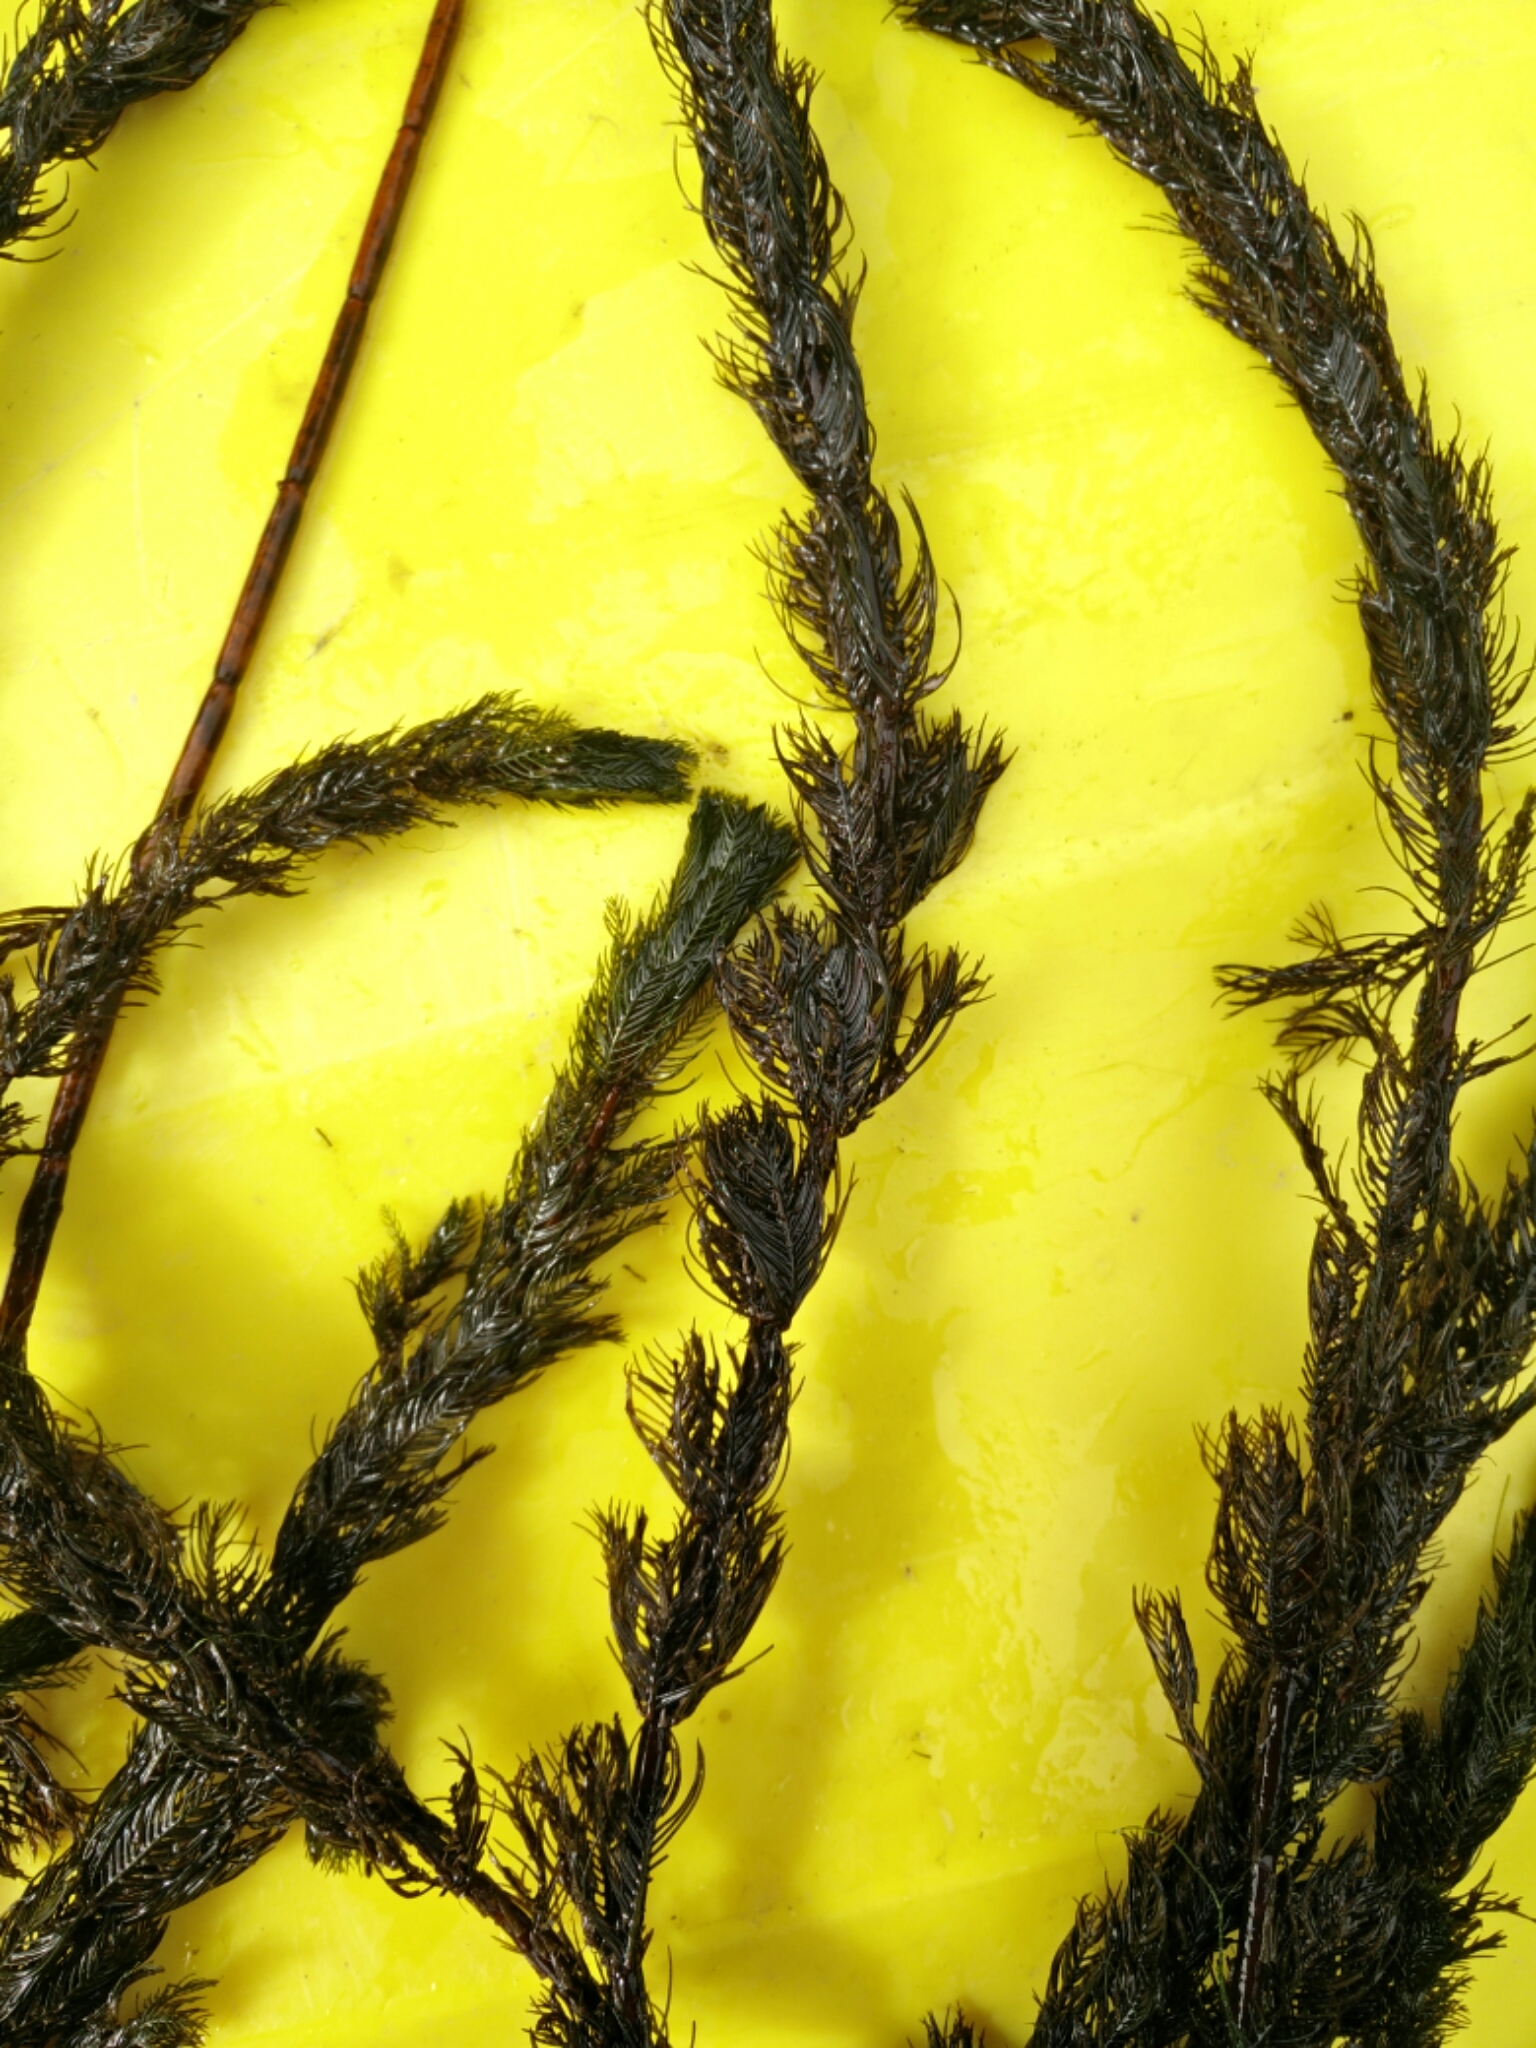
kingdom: Plantae
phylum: Tracheophyta
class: Magnoliopsida
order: Saxifragales
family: Haloragaceae
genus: Myriophyllum
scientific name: Myriophyllum spicatum
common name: Spiked water-milfoil
